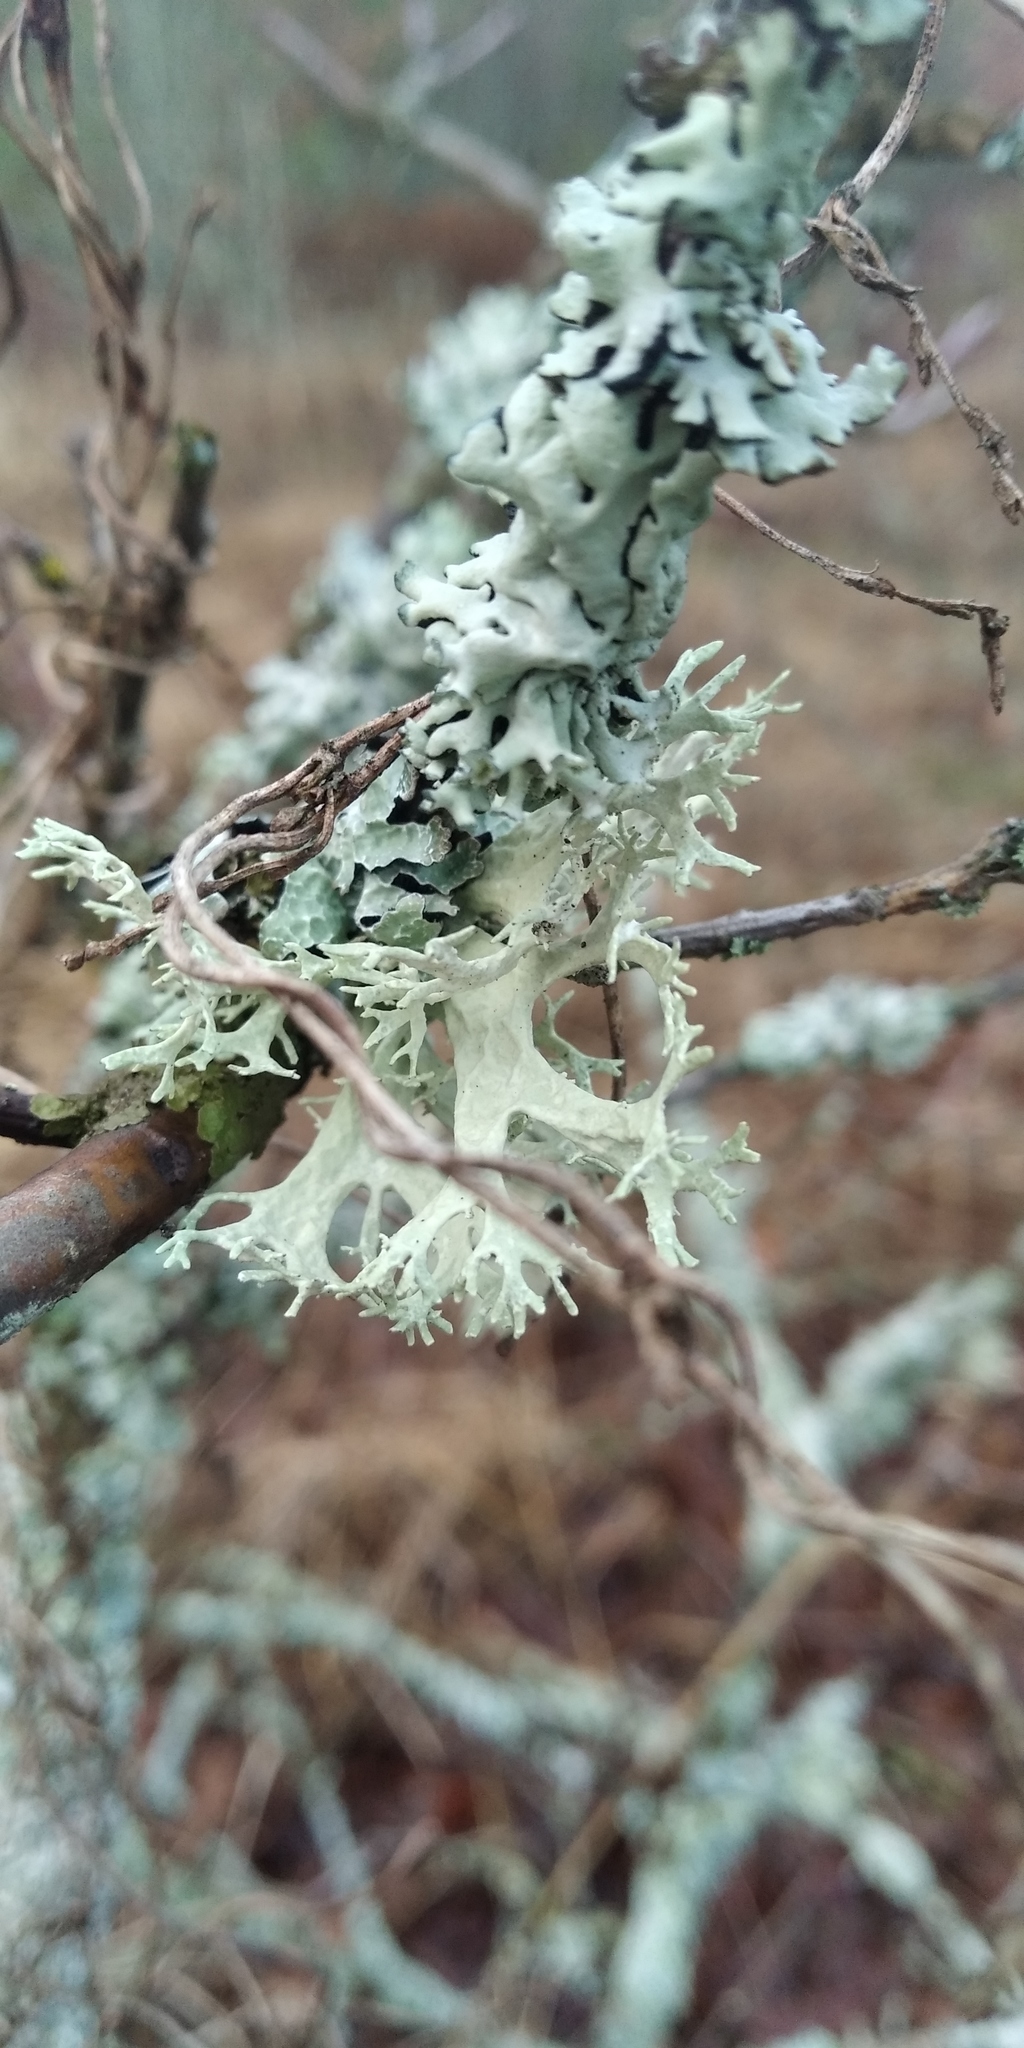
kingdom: Fungi
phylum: Ascomycota
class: Lecanoromycetes
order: Lecanorales
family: Parmeliaceae
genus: Evernia
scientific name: Evernia prunastri
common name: Oak moss
